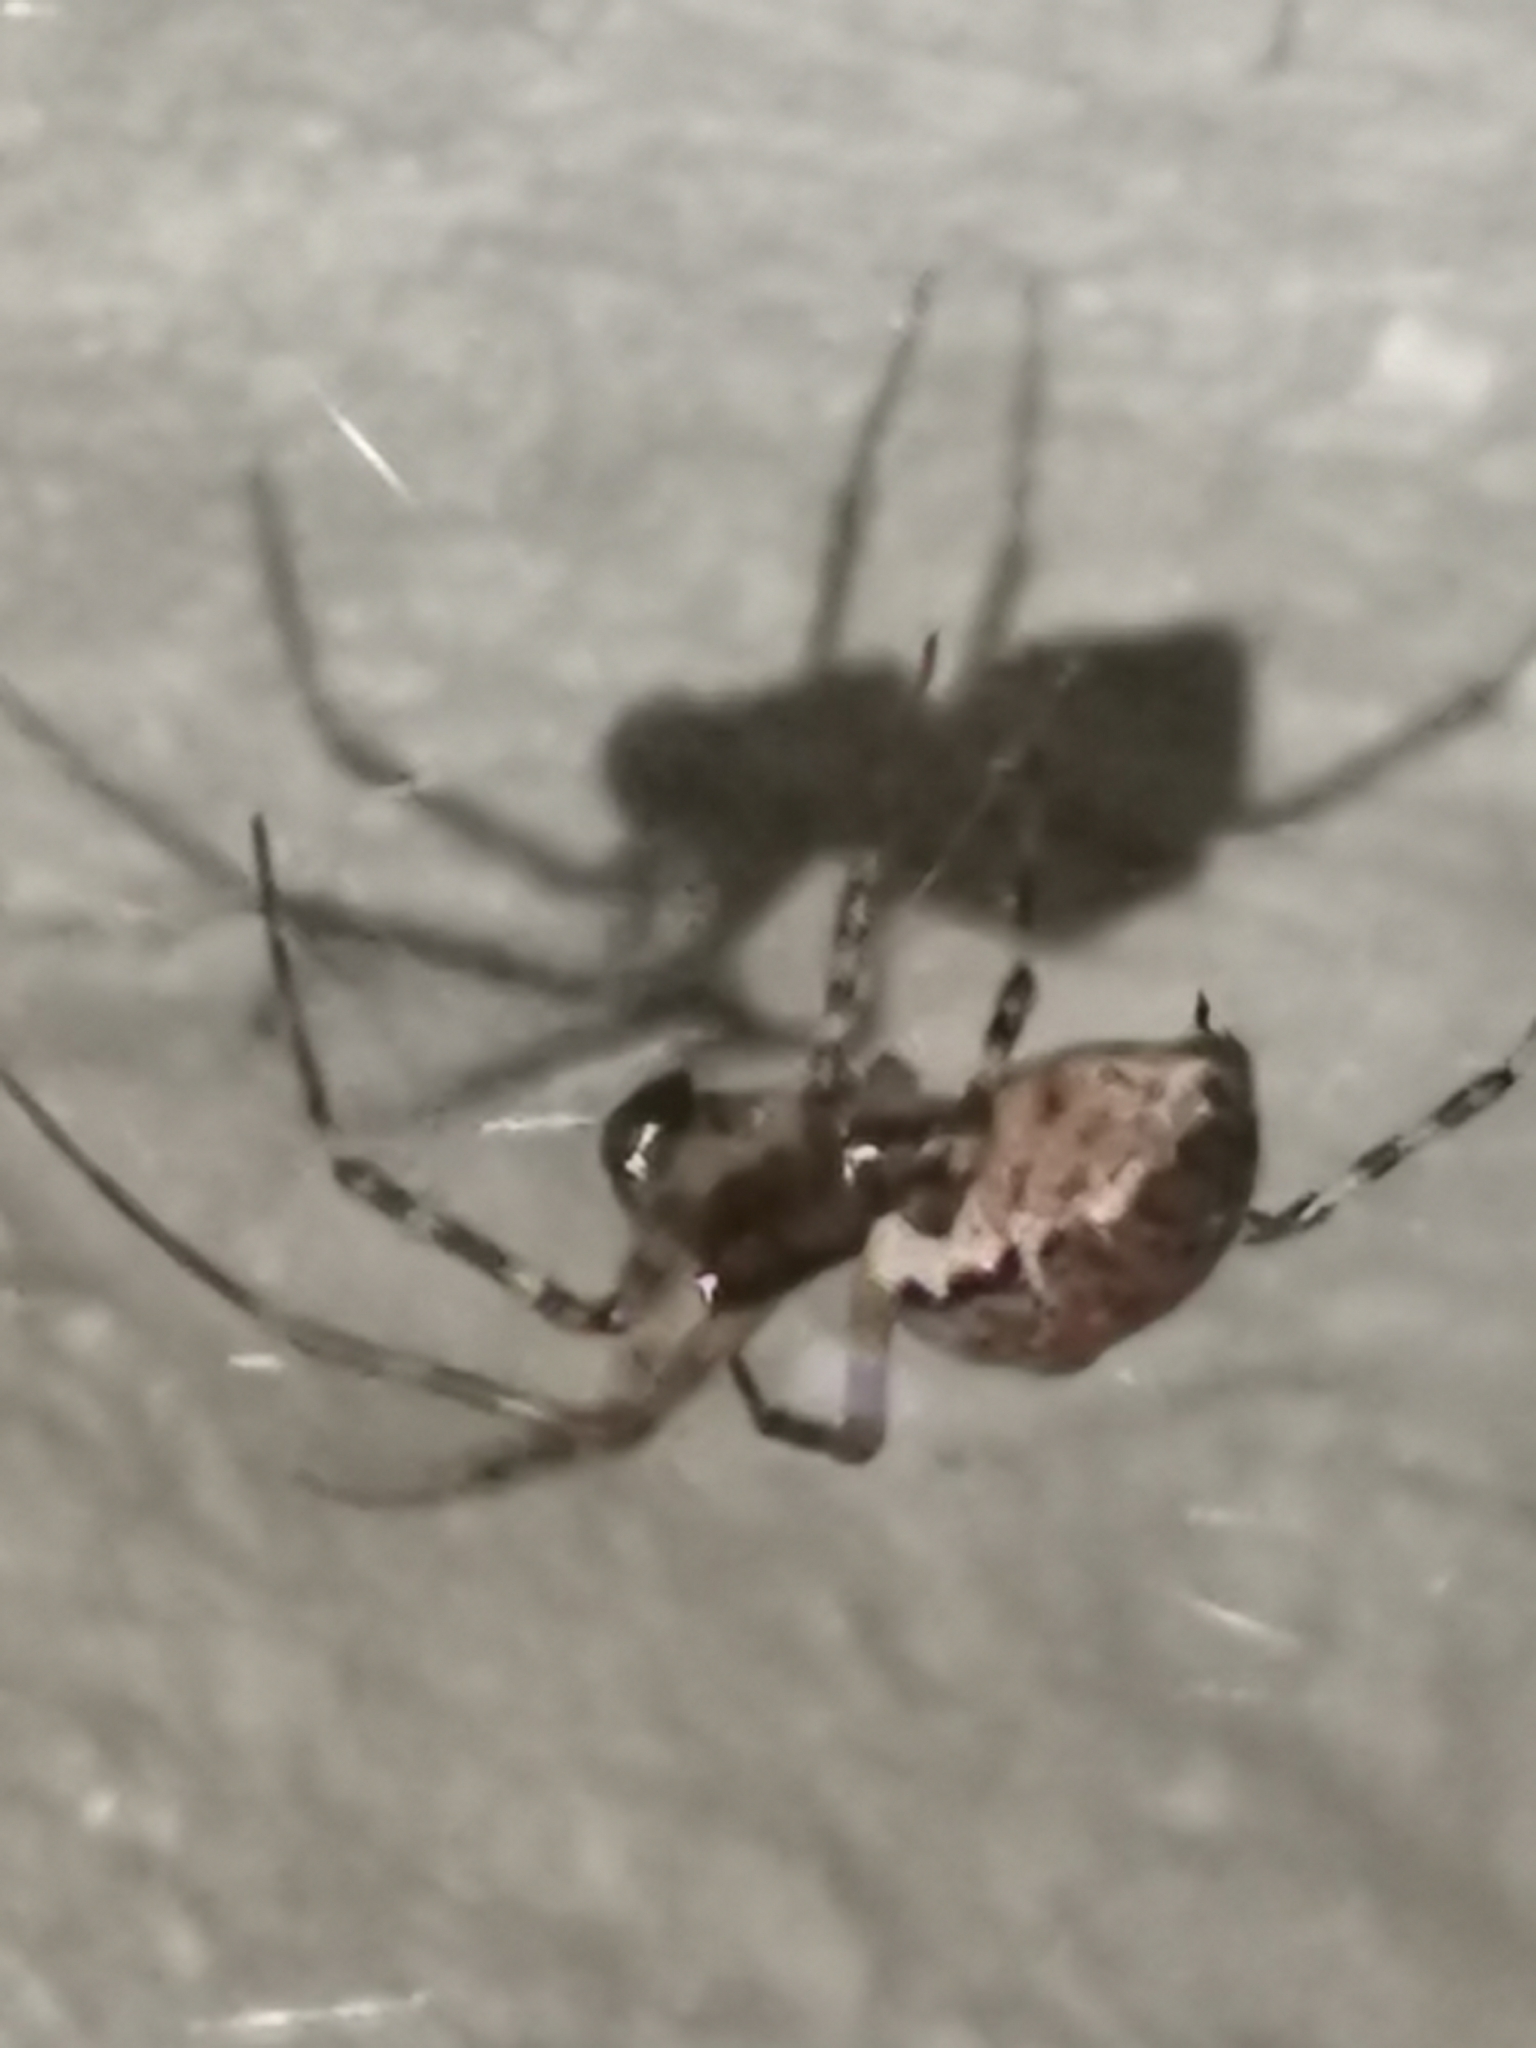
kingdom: Animalia
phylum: Arthropoda
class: Arachnida
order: Araneae
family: Linyphiidae
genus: Neriene
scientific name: Neriene montana
